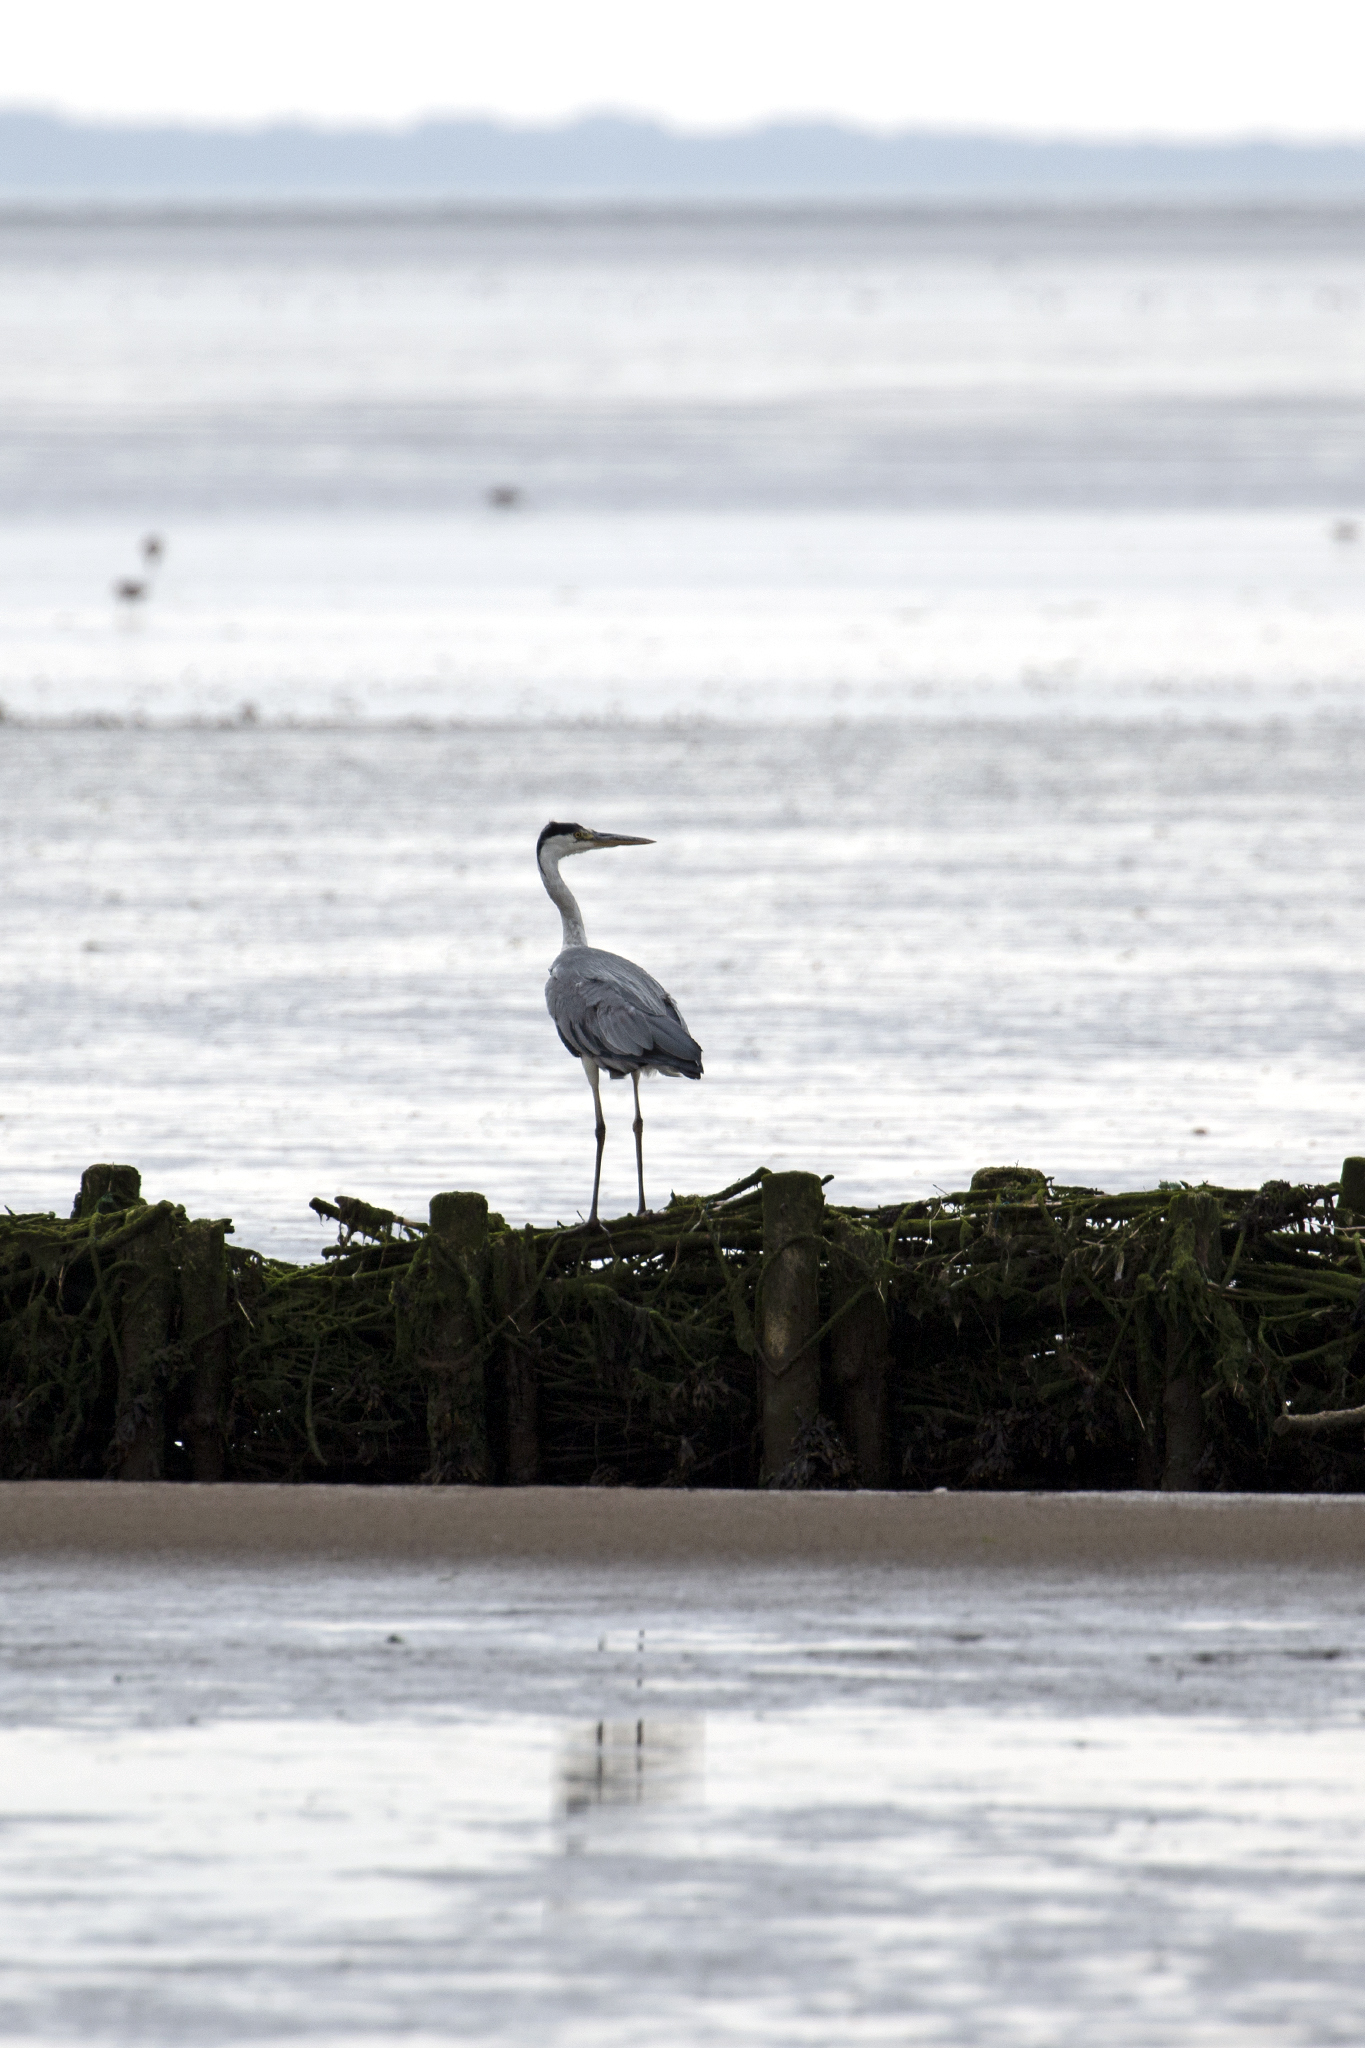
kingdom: Animalia
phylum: Chordata
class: Aves
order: Pelecaniformes
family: Ardeidae
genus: Ardea
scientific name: Ardea cinerea
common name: Grey heron
